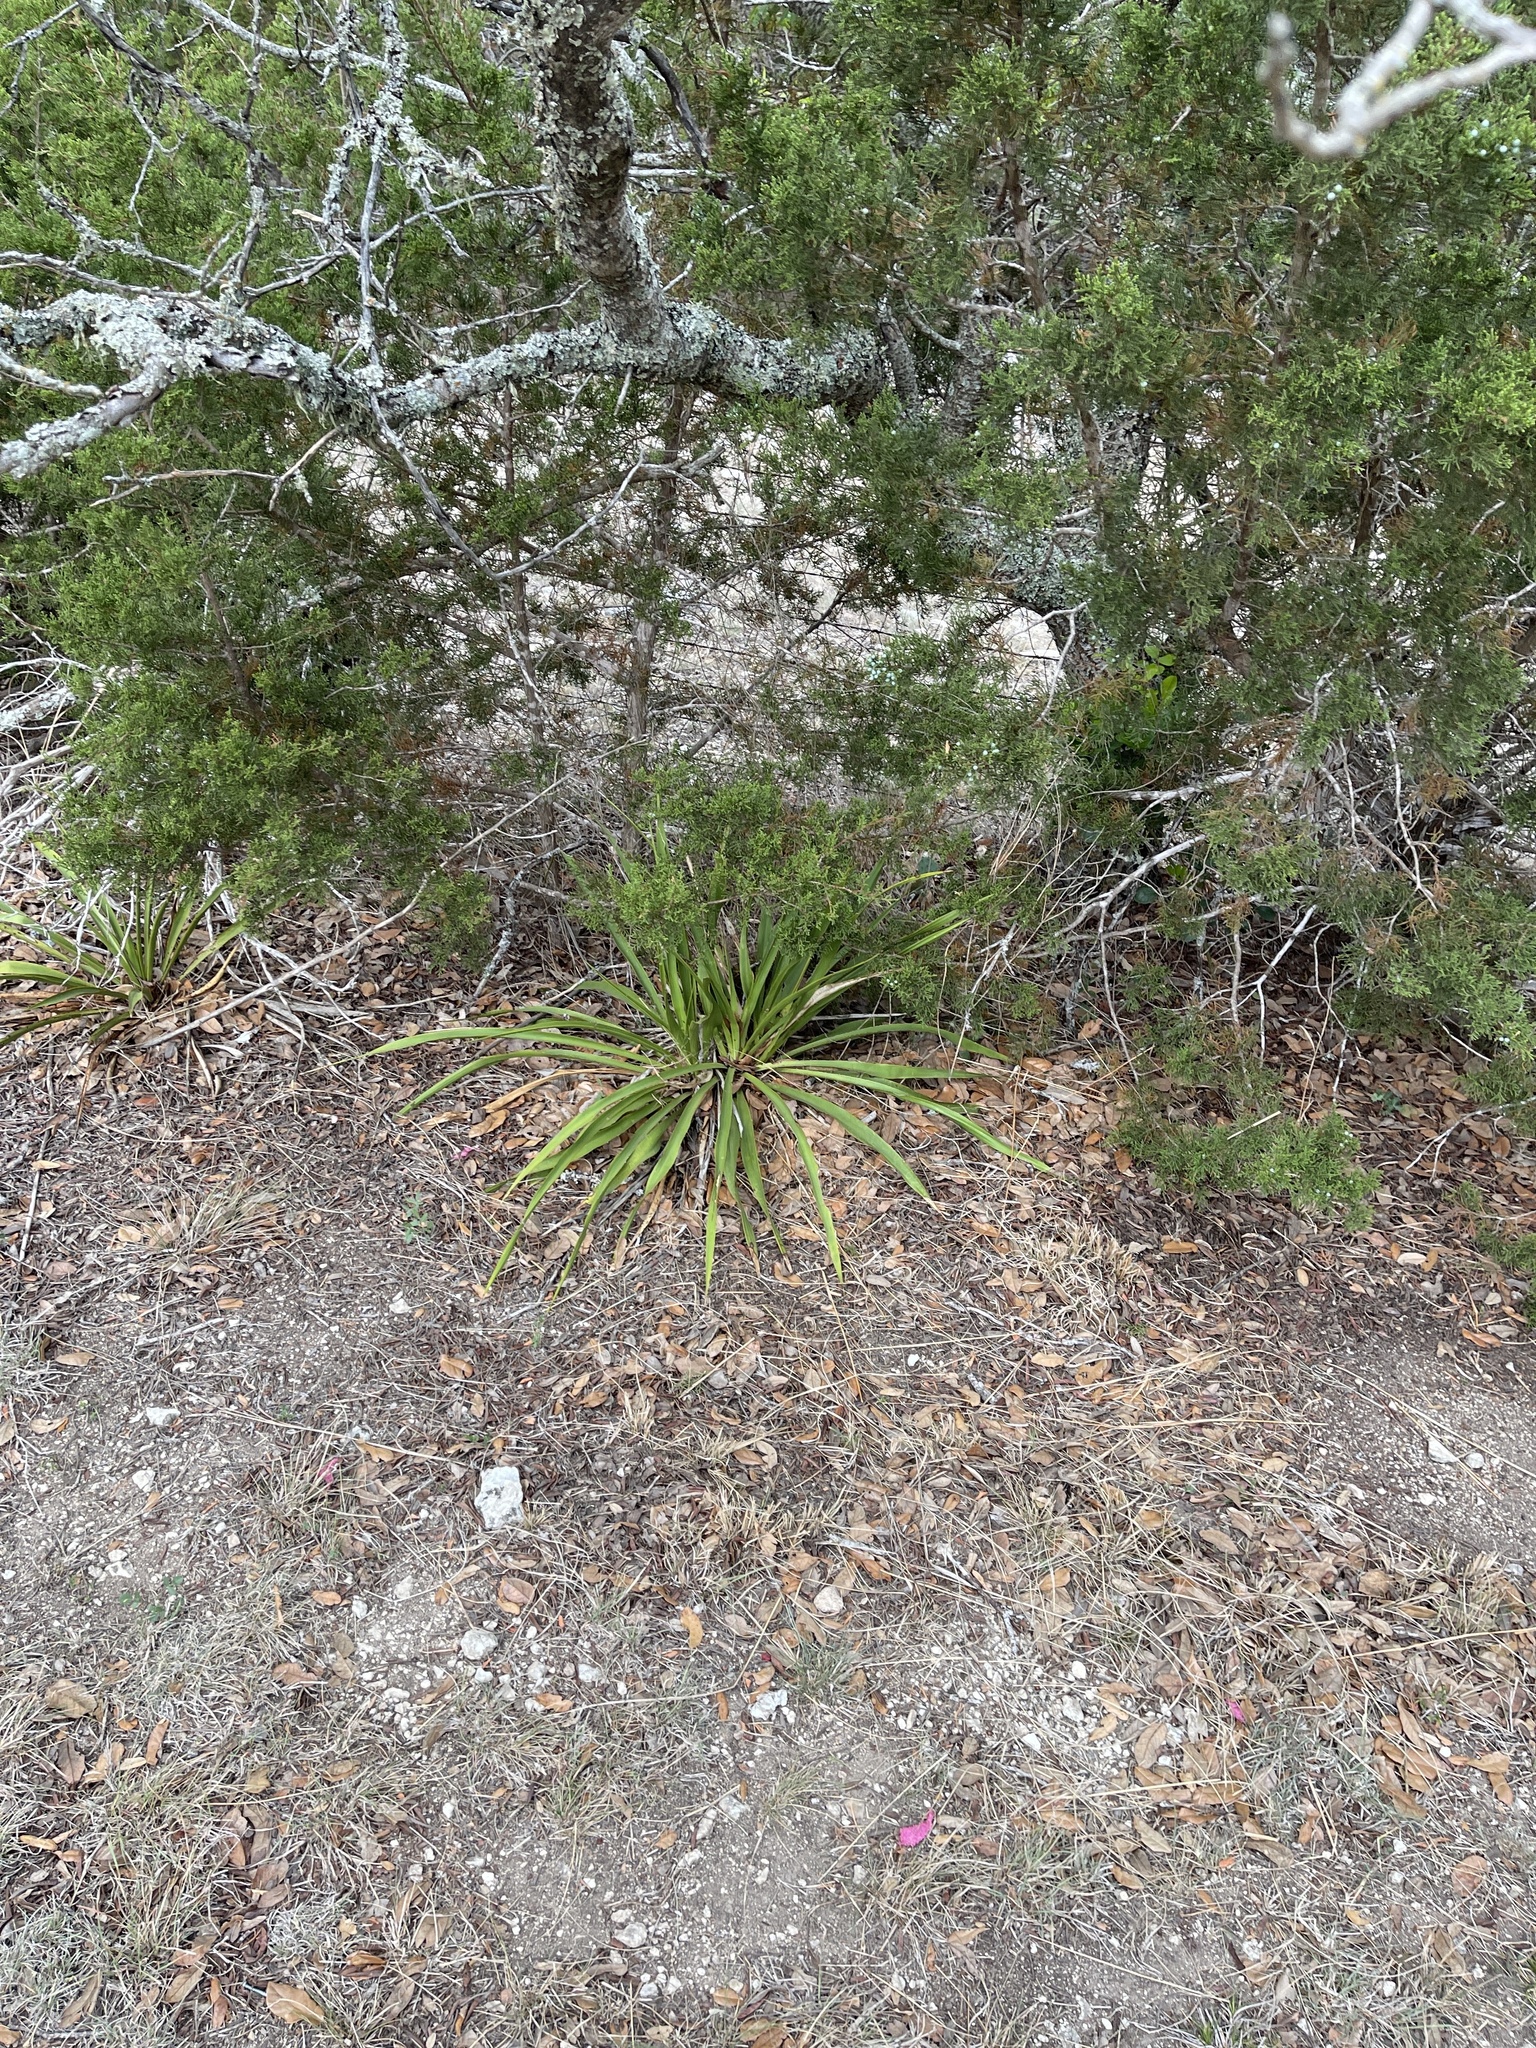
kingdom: Plantae
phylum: Tracheophyta
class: Liliopsida
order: Asparagales
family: Asparagaceae
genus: Yucca
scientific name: Yucca rupicola
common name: Twisted-leaf spanish-dagger
